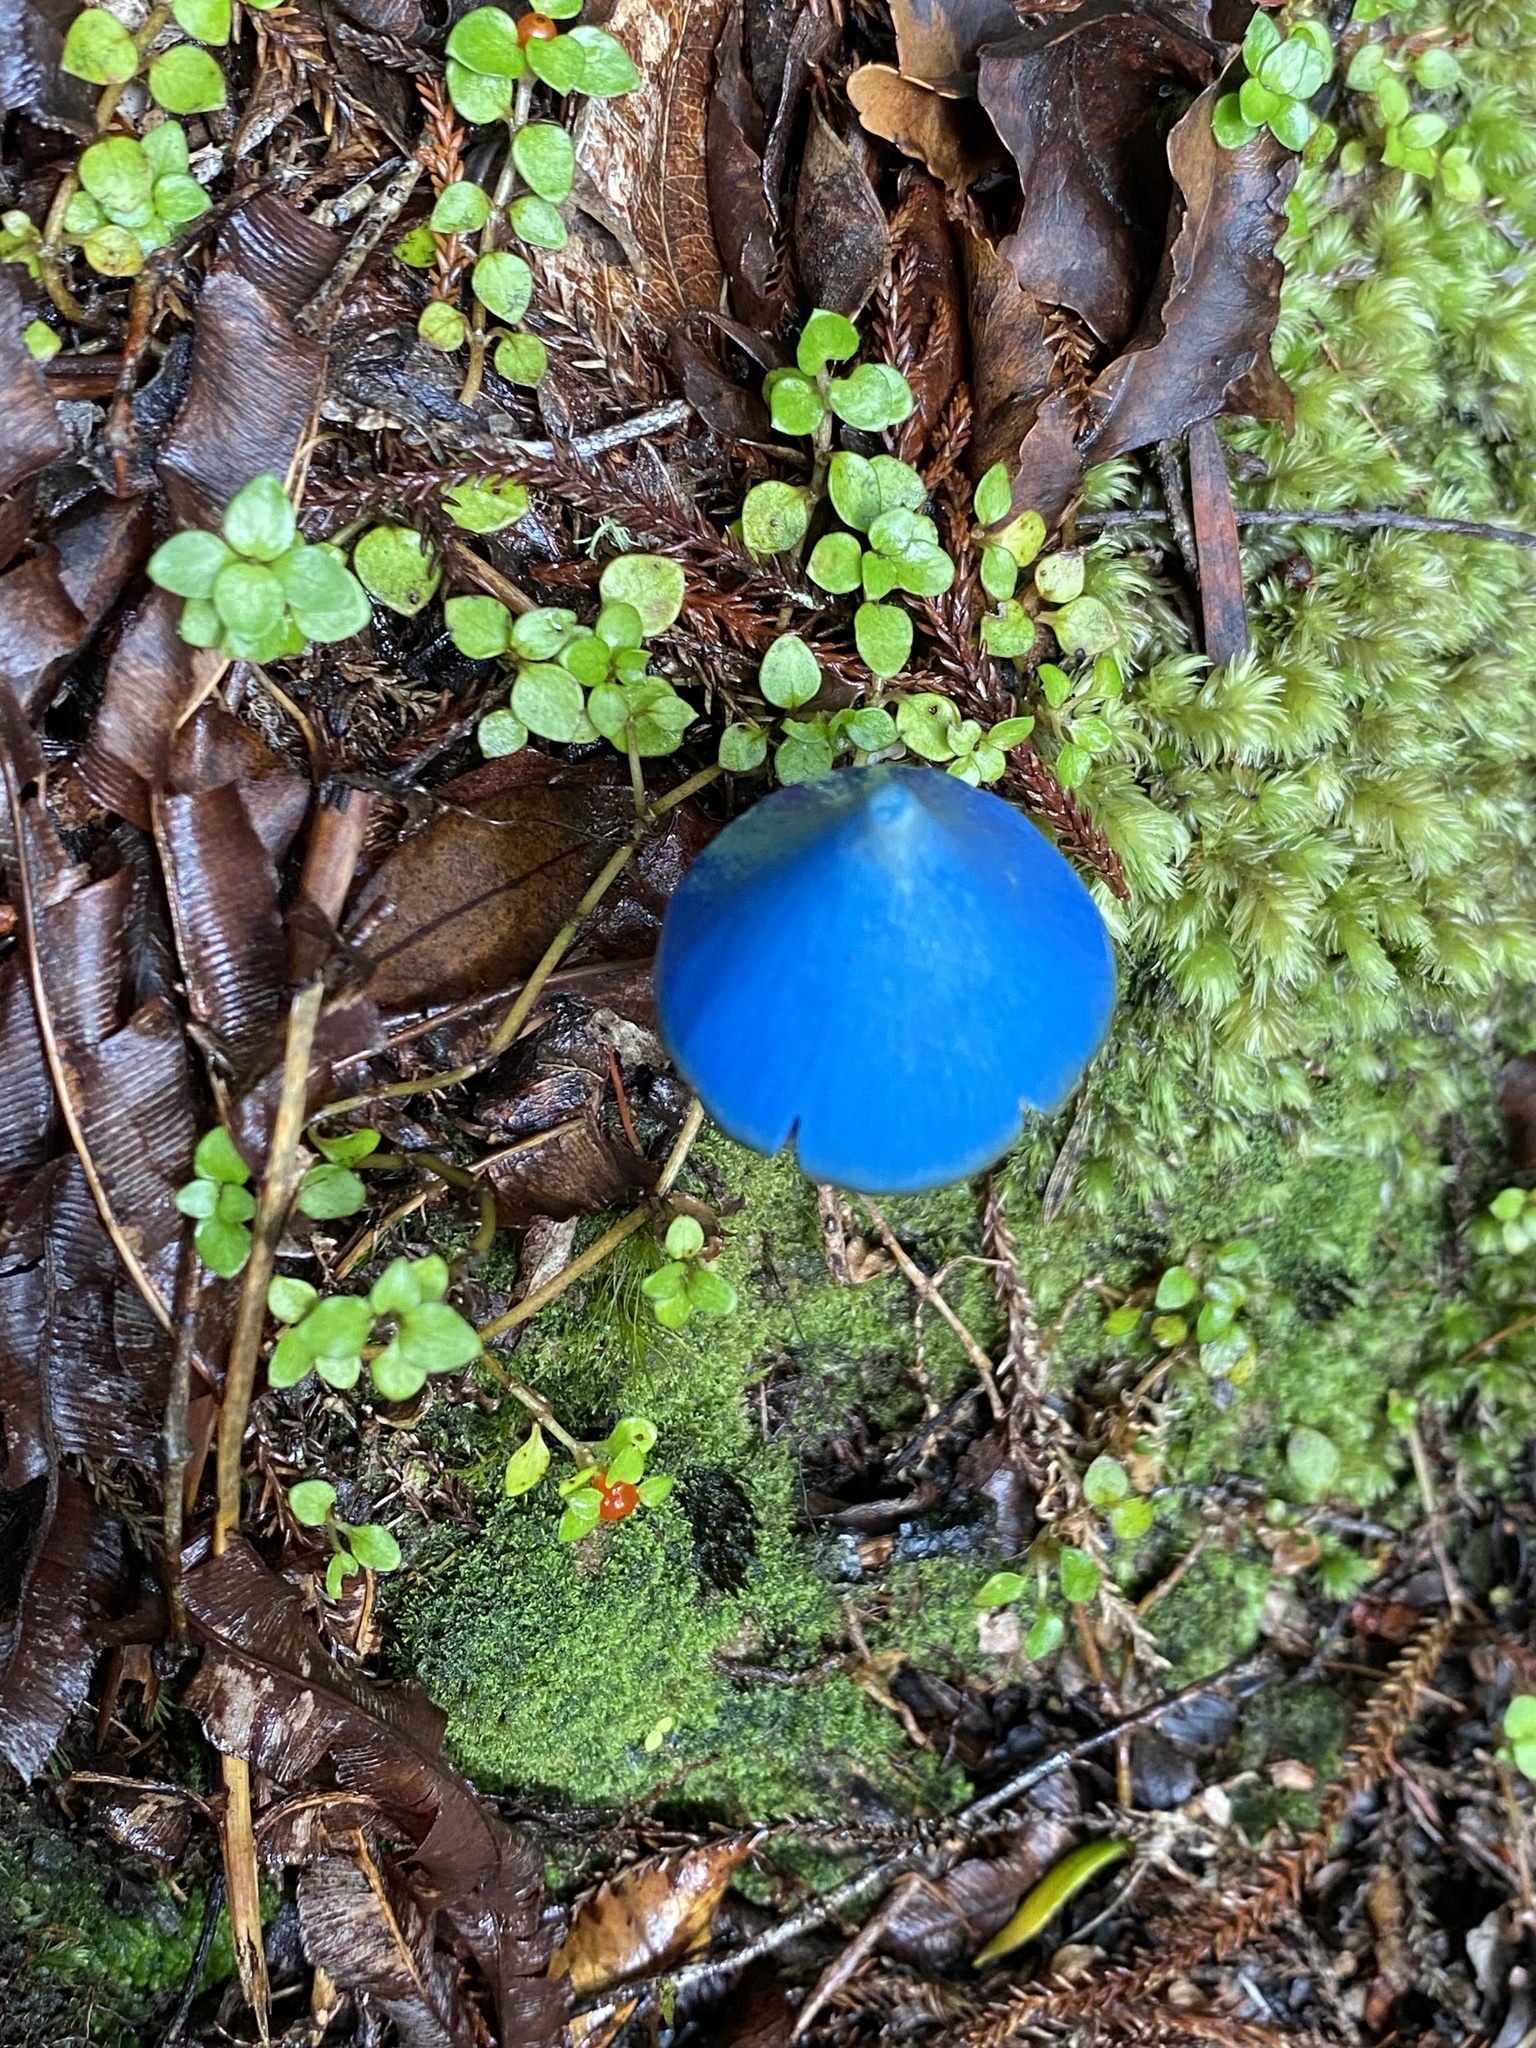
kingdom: Fungi
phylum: Basidiomycota
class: Agaricomycetes
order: Agaricales
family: Entolomataceae
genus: Entoloma
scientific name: Entoloma hochstetteri
